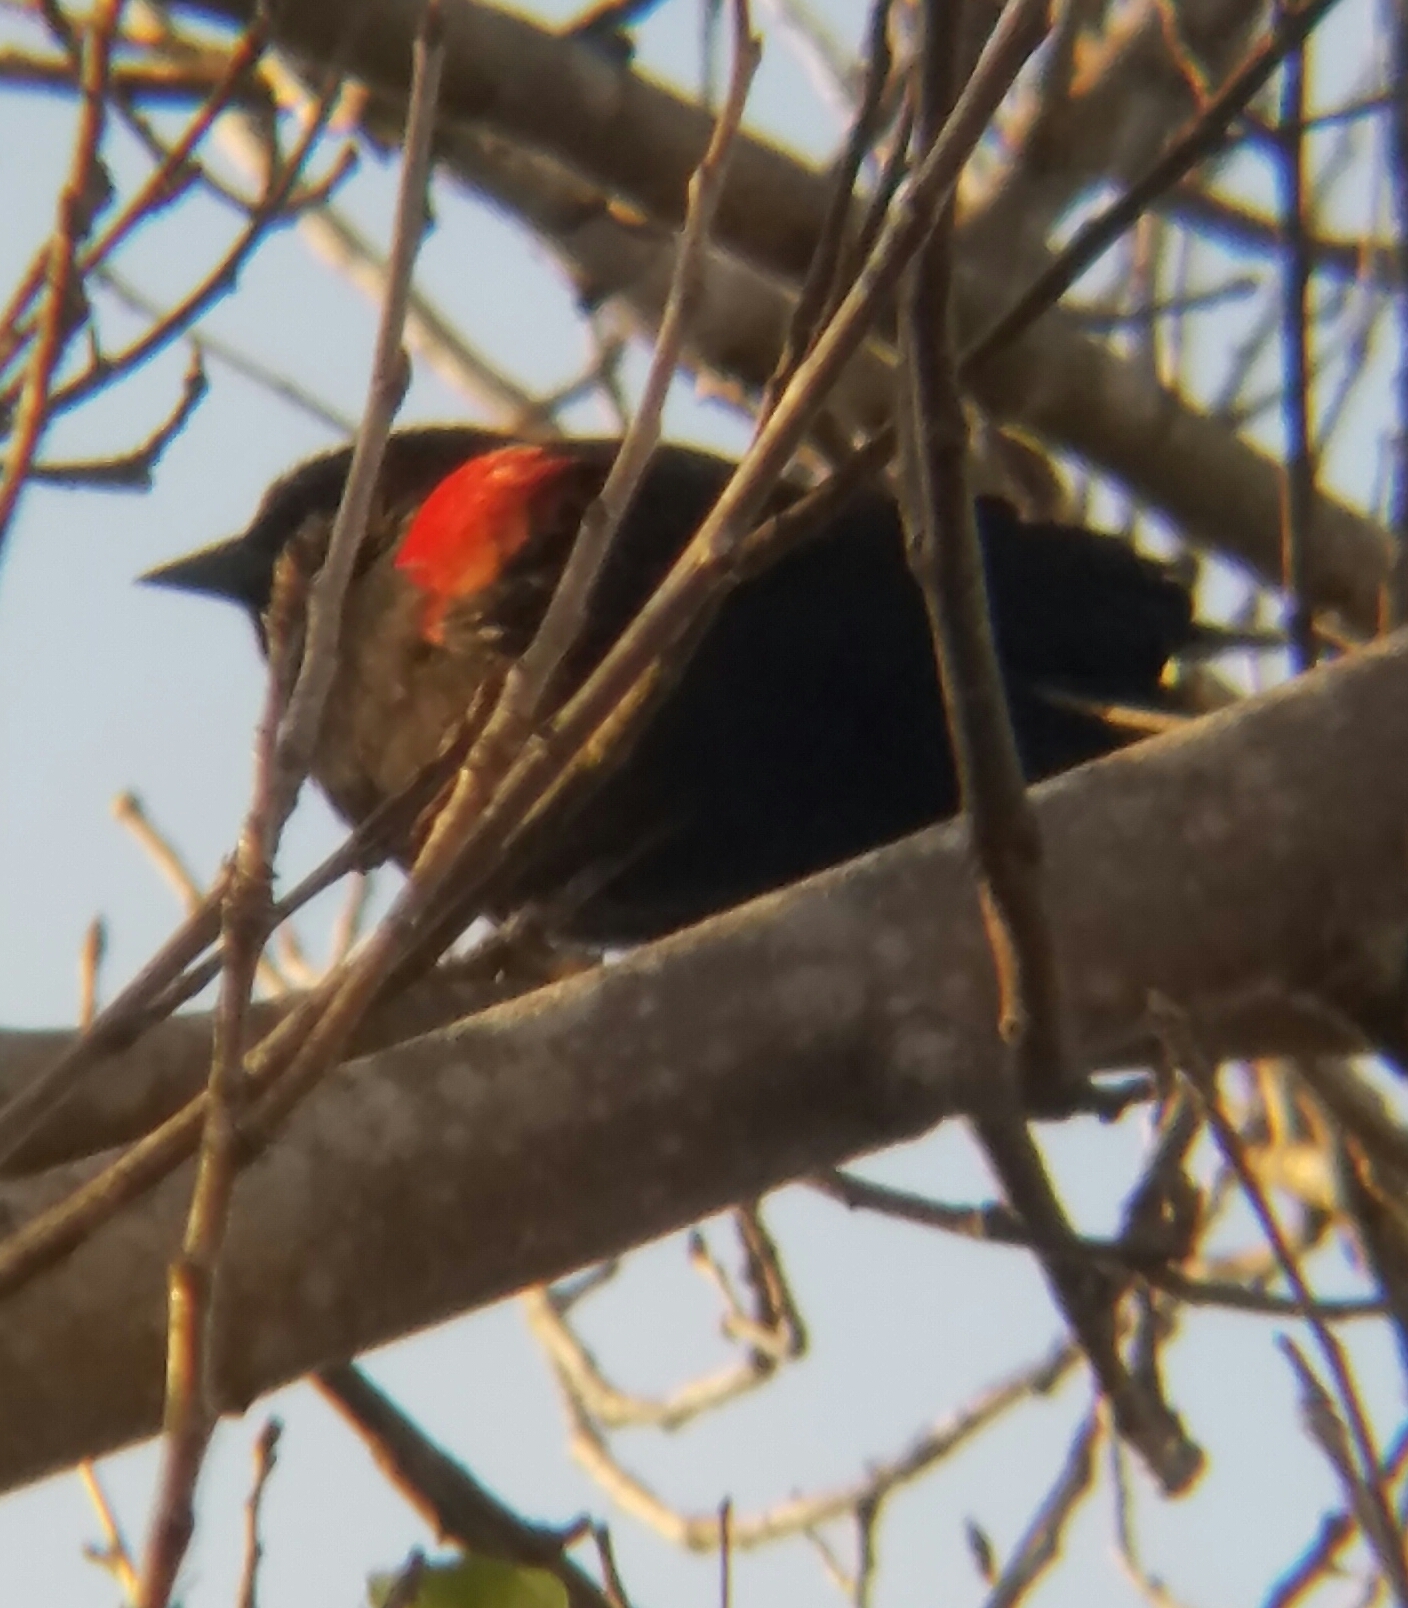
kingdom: Animalia
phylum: Chordata
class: Aves
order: Passeriformes
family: Icteridae
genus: Agelaius
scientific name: Agelaius phoeniceus
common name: Red-winged blackbird
